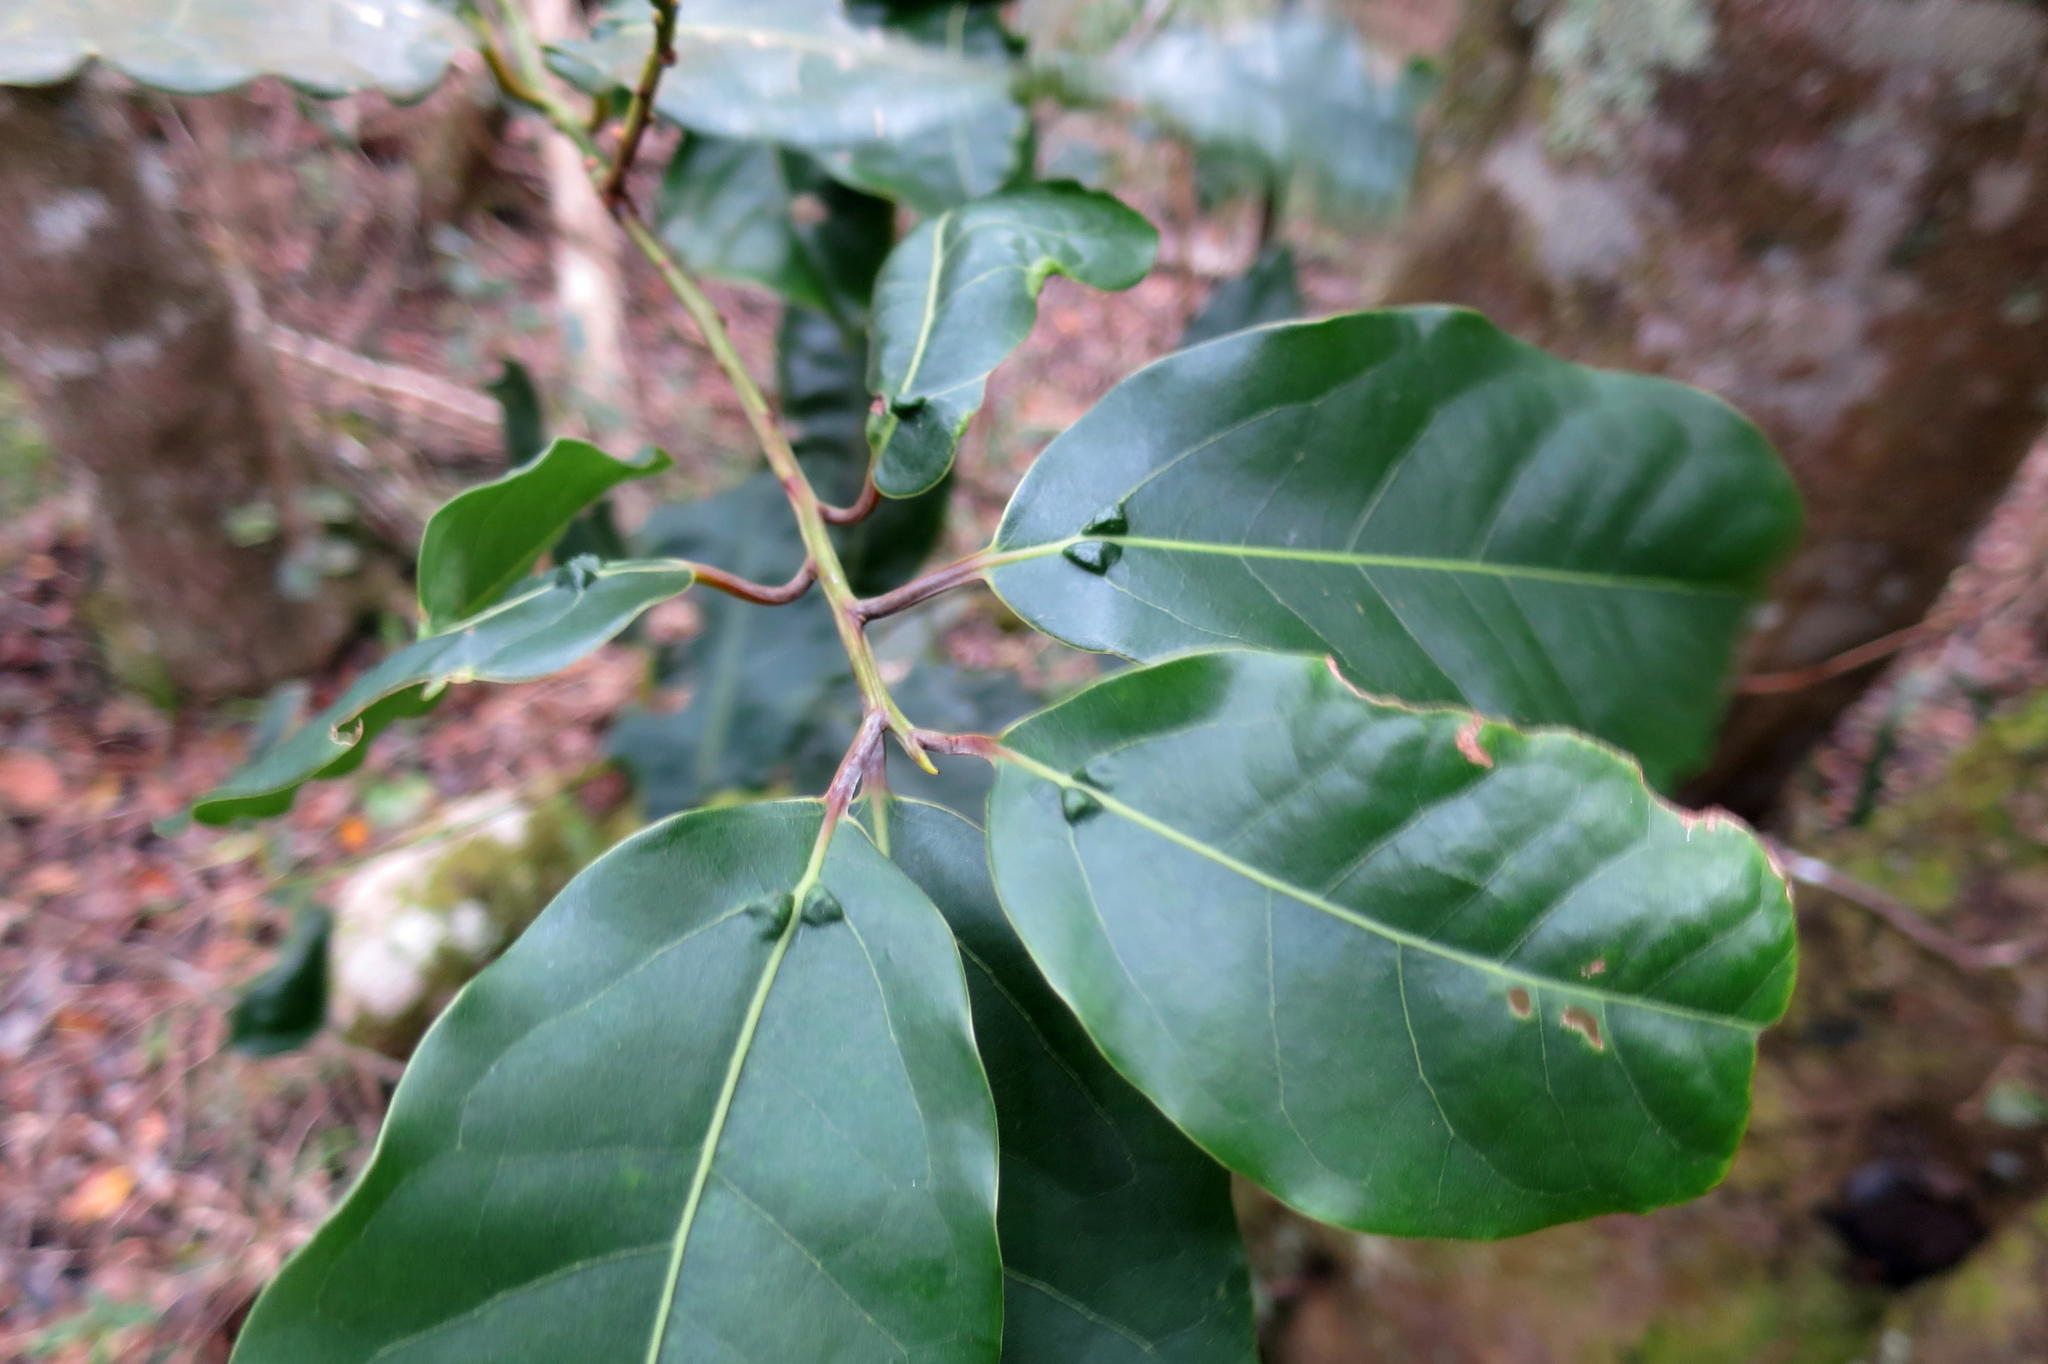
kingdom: Plantae
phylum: Tracheophyta
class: Magnoliopsida
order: Laurales
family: Lauraceae
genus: Ocotea
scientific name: Ocotea bullata
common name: Black stinkwood
